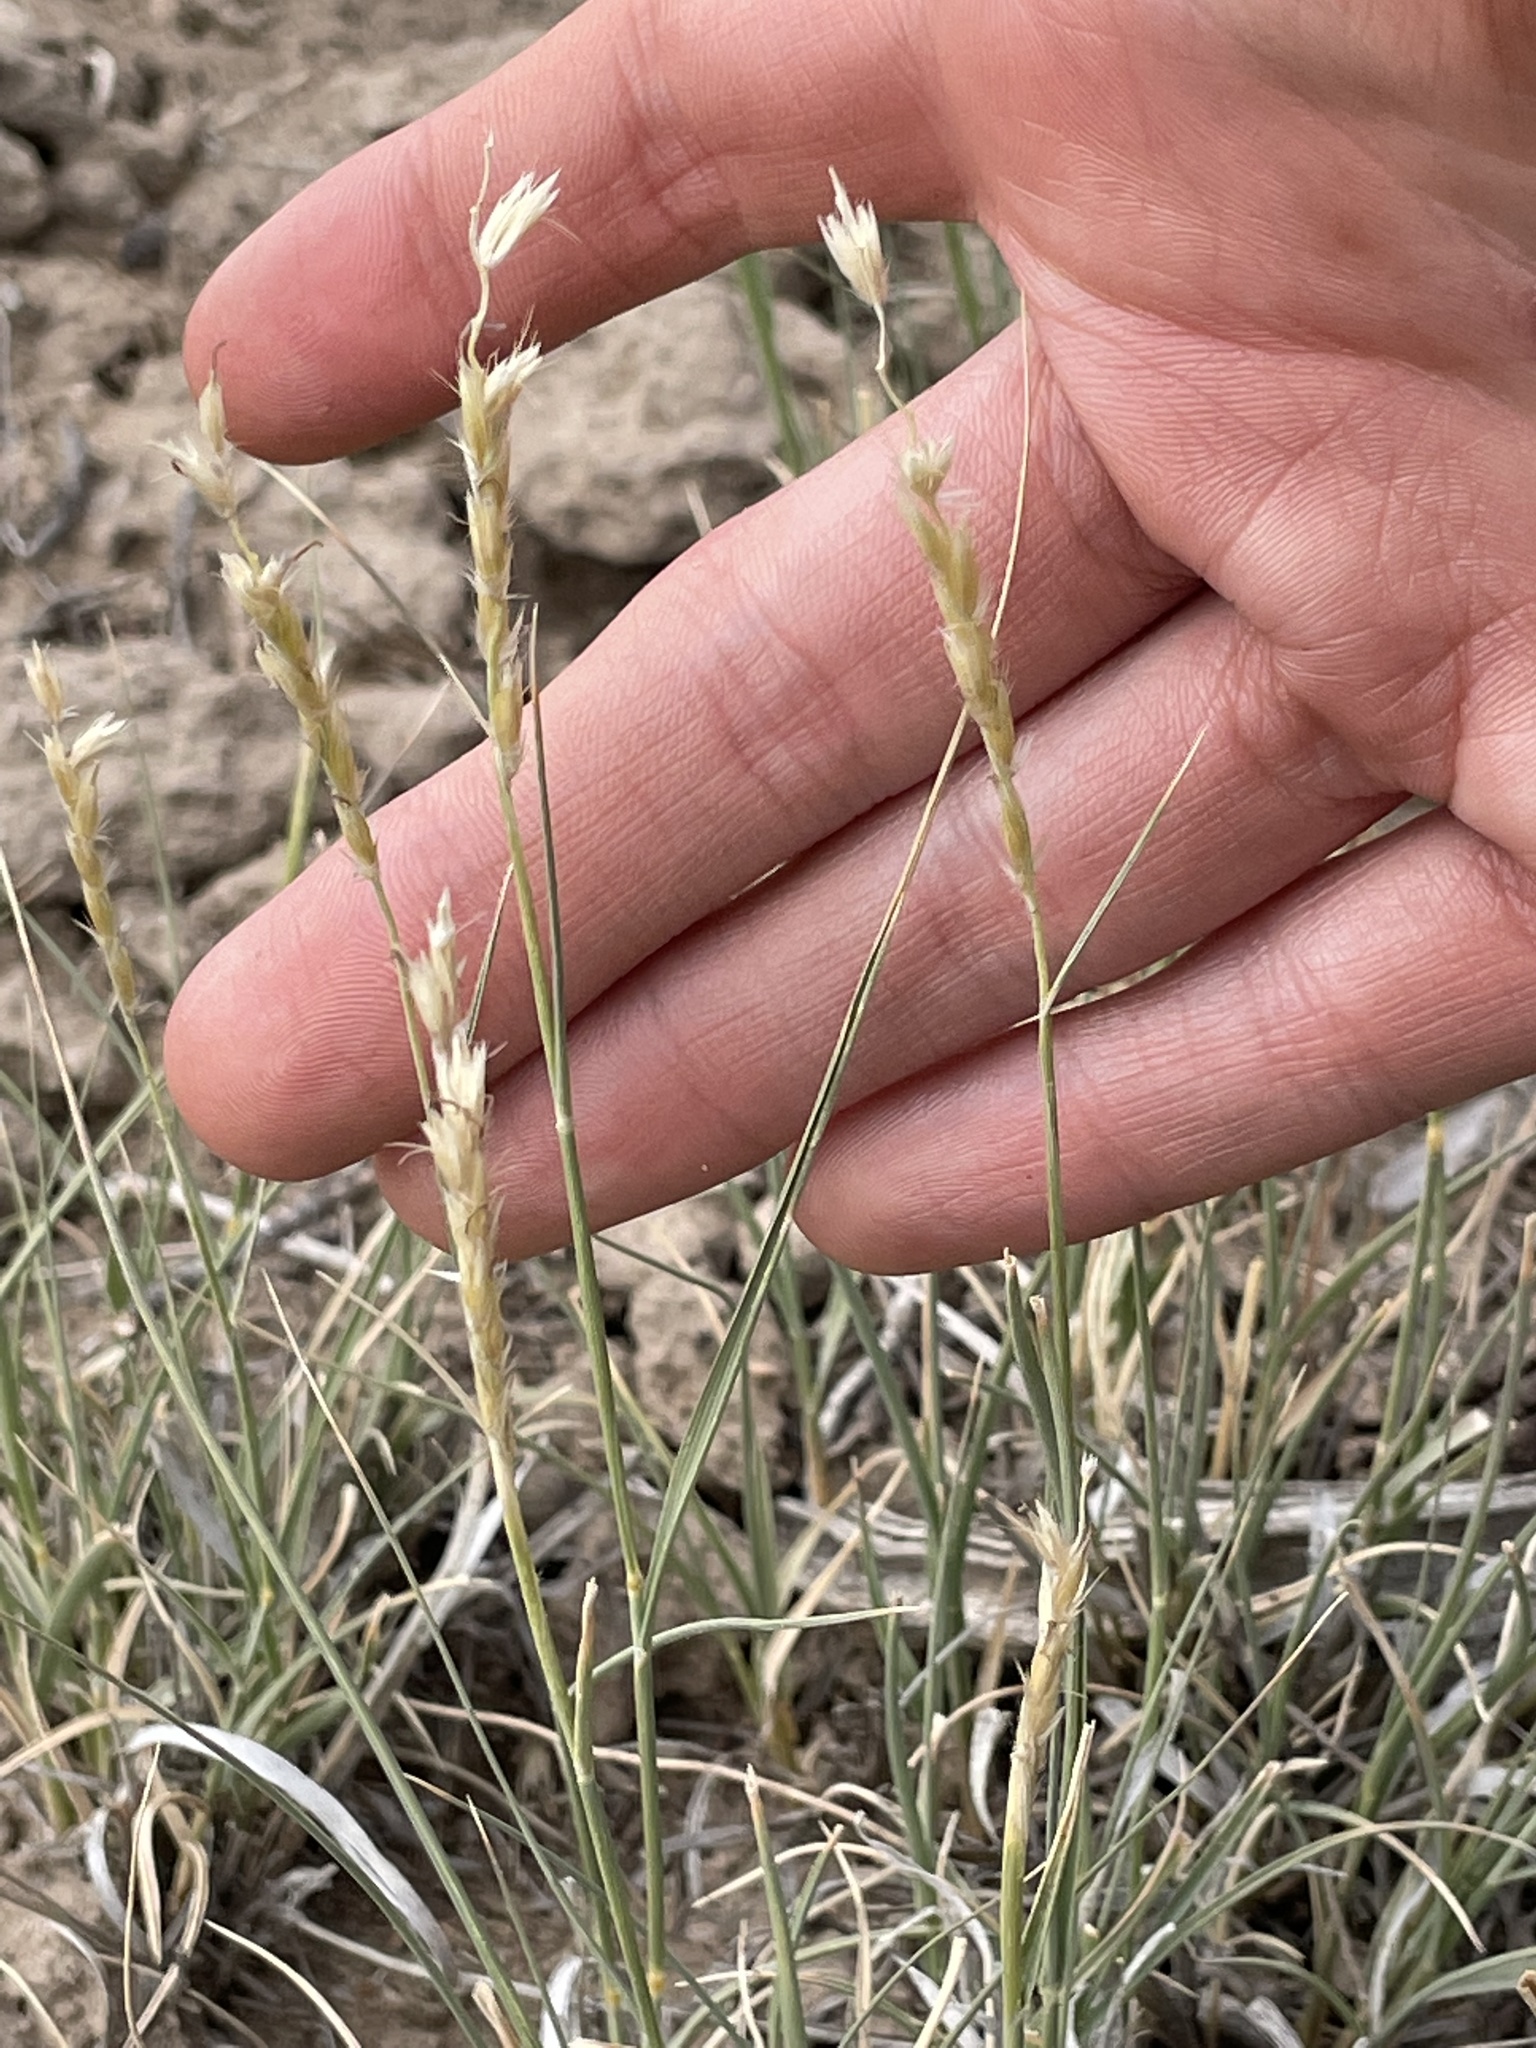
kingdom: Plantae
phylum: Tracheophyta
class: Liliopsida
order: Poales
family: Poaceae
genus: Hilaria
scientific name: Hilaria jamesii
